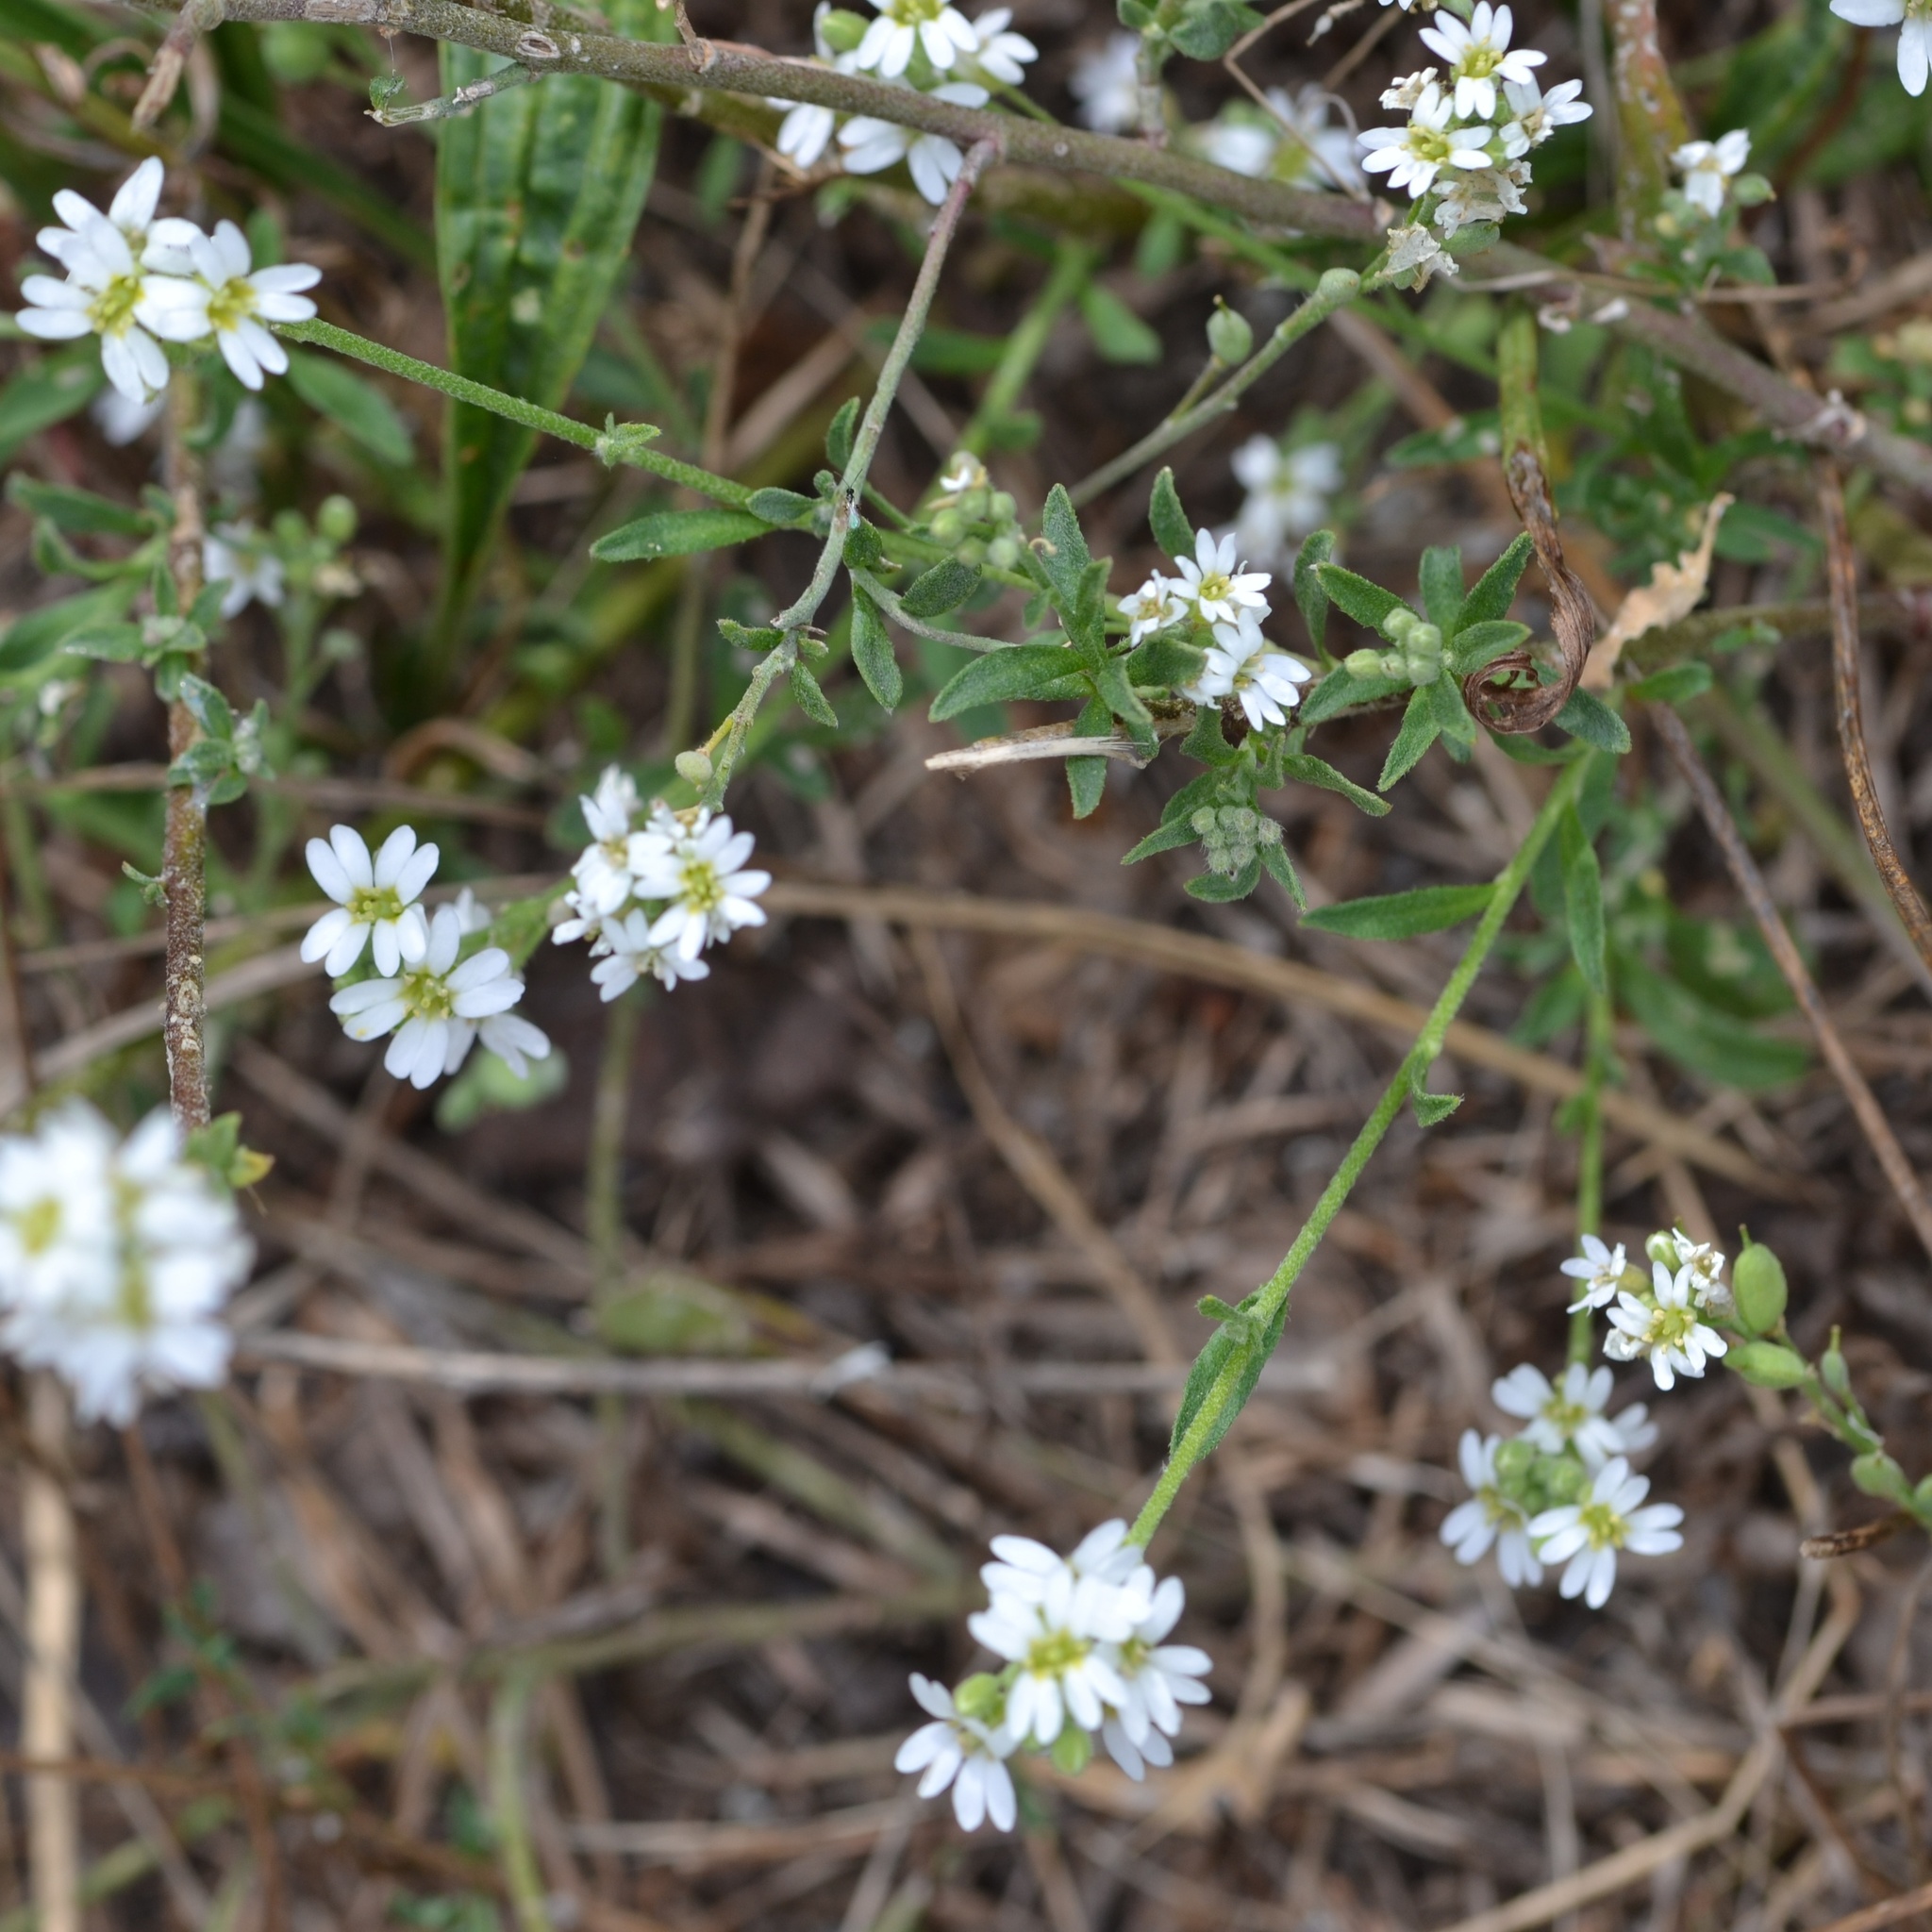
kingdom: Plantae
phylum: Tracheophyta
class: Magnoliopsida
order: Brassicales
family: Brassicaceae
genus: Berteroa
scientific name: Berteroa incana
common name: Hoary alison
